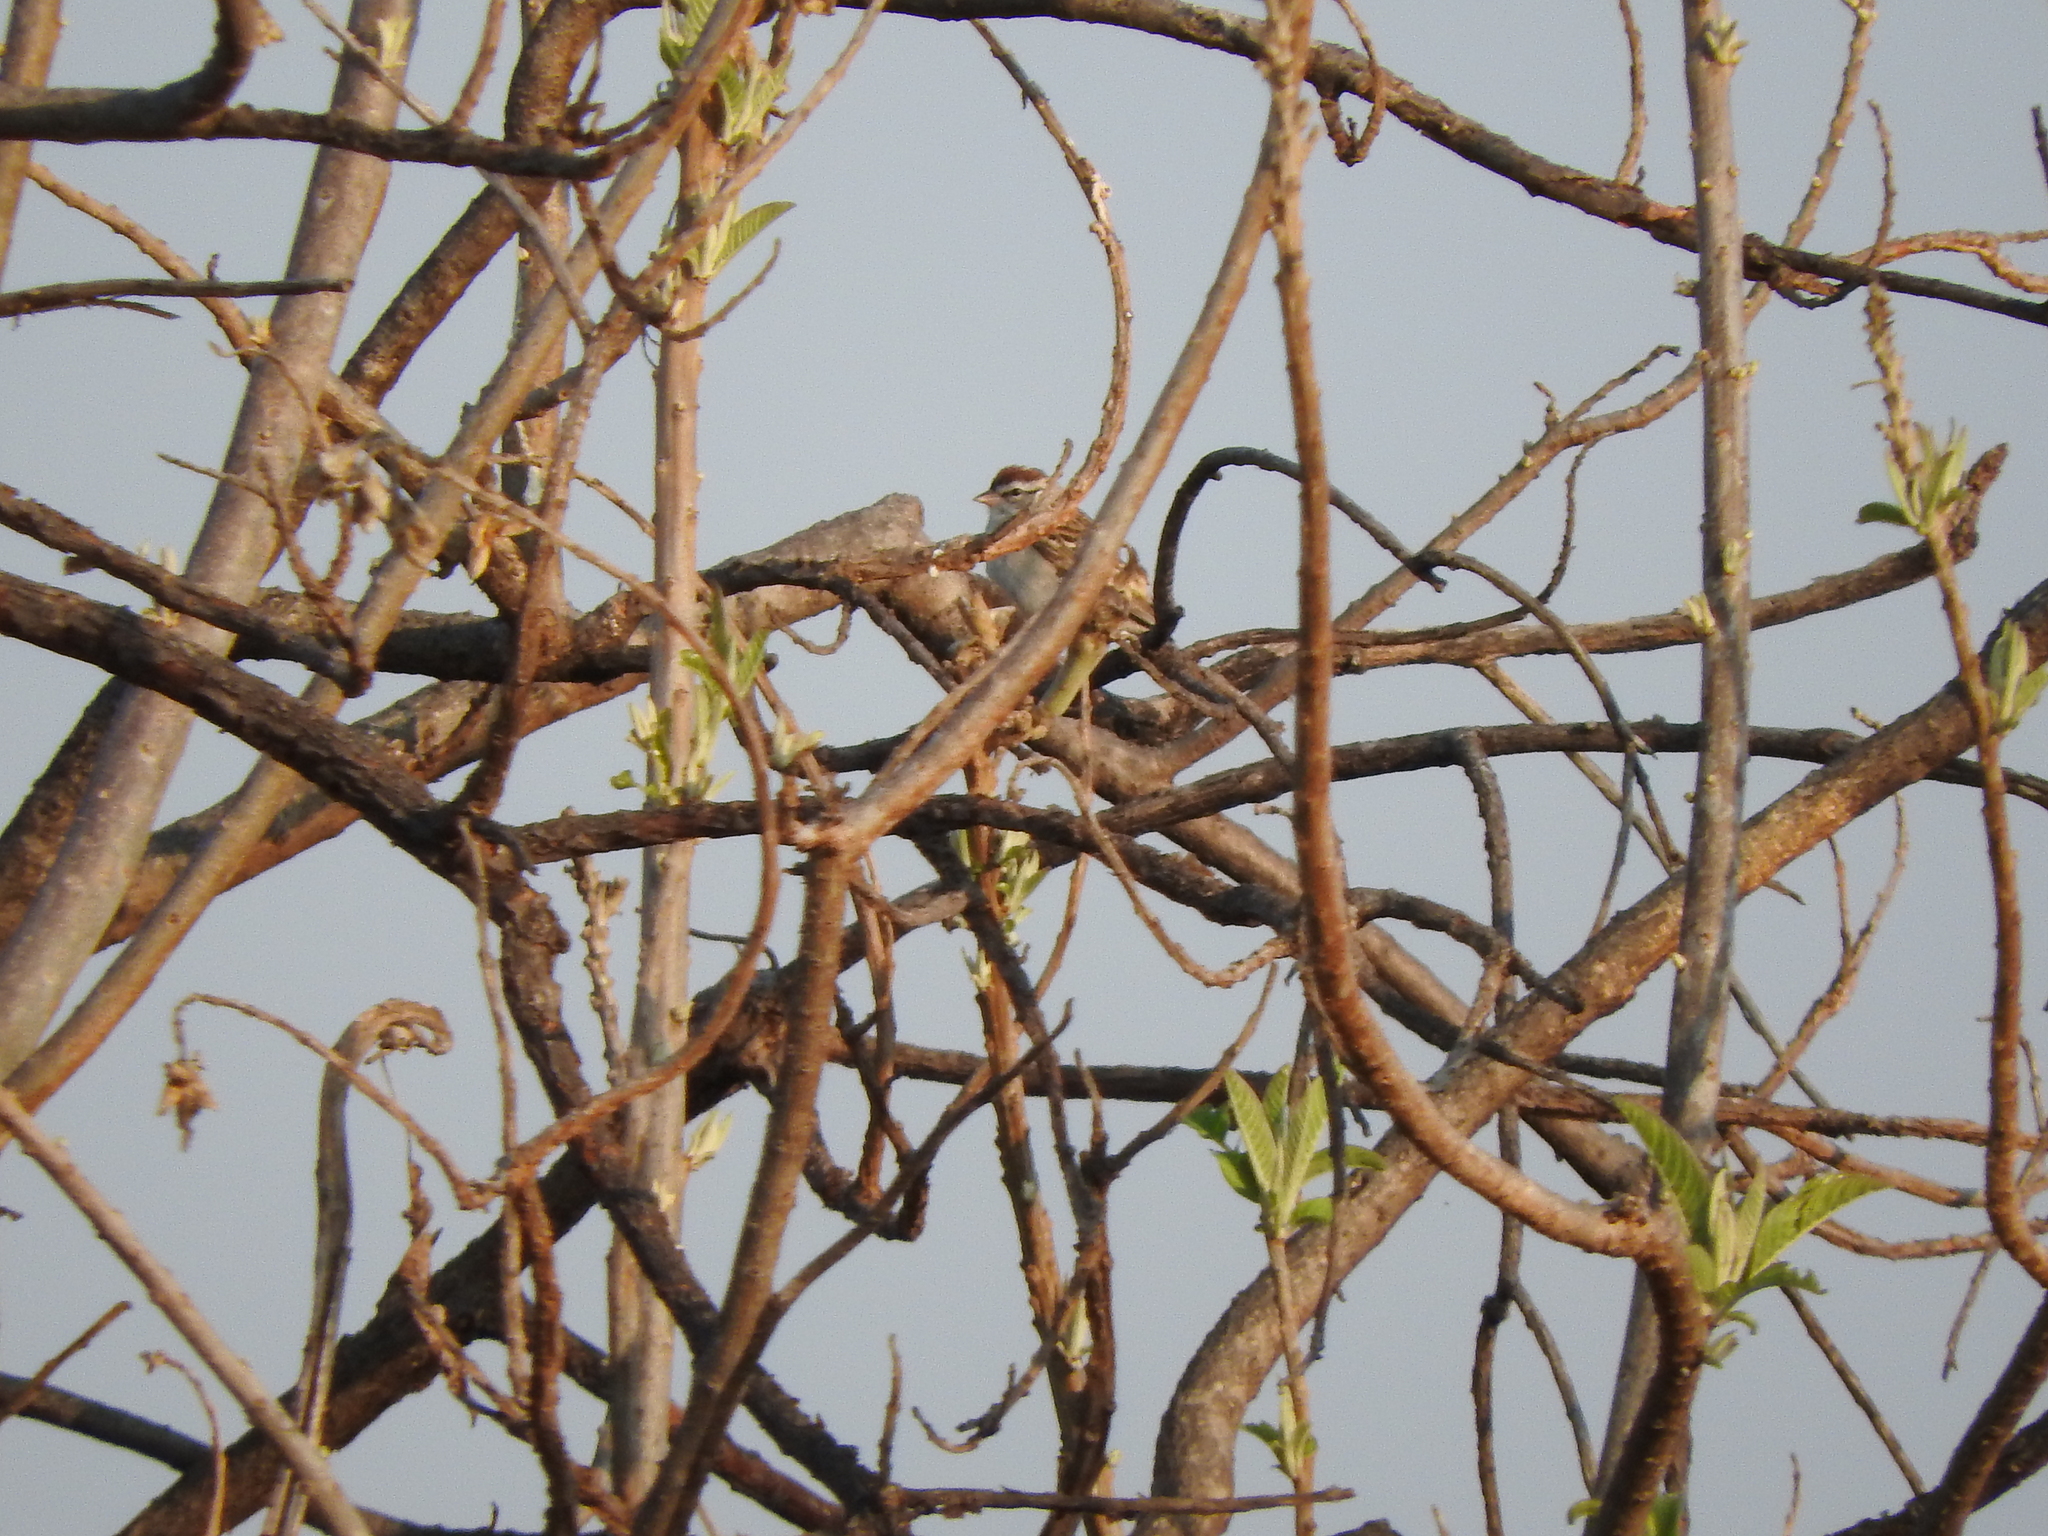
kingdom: Animalia
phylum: Chordata
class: Aves
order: Passeriformes
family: Passerellidae
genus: Chondestes
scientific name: Chondestes grammacus
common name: Lark sparrow
